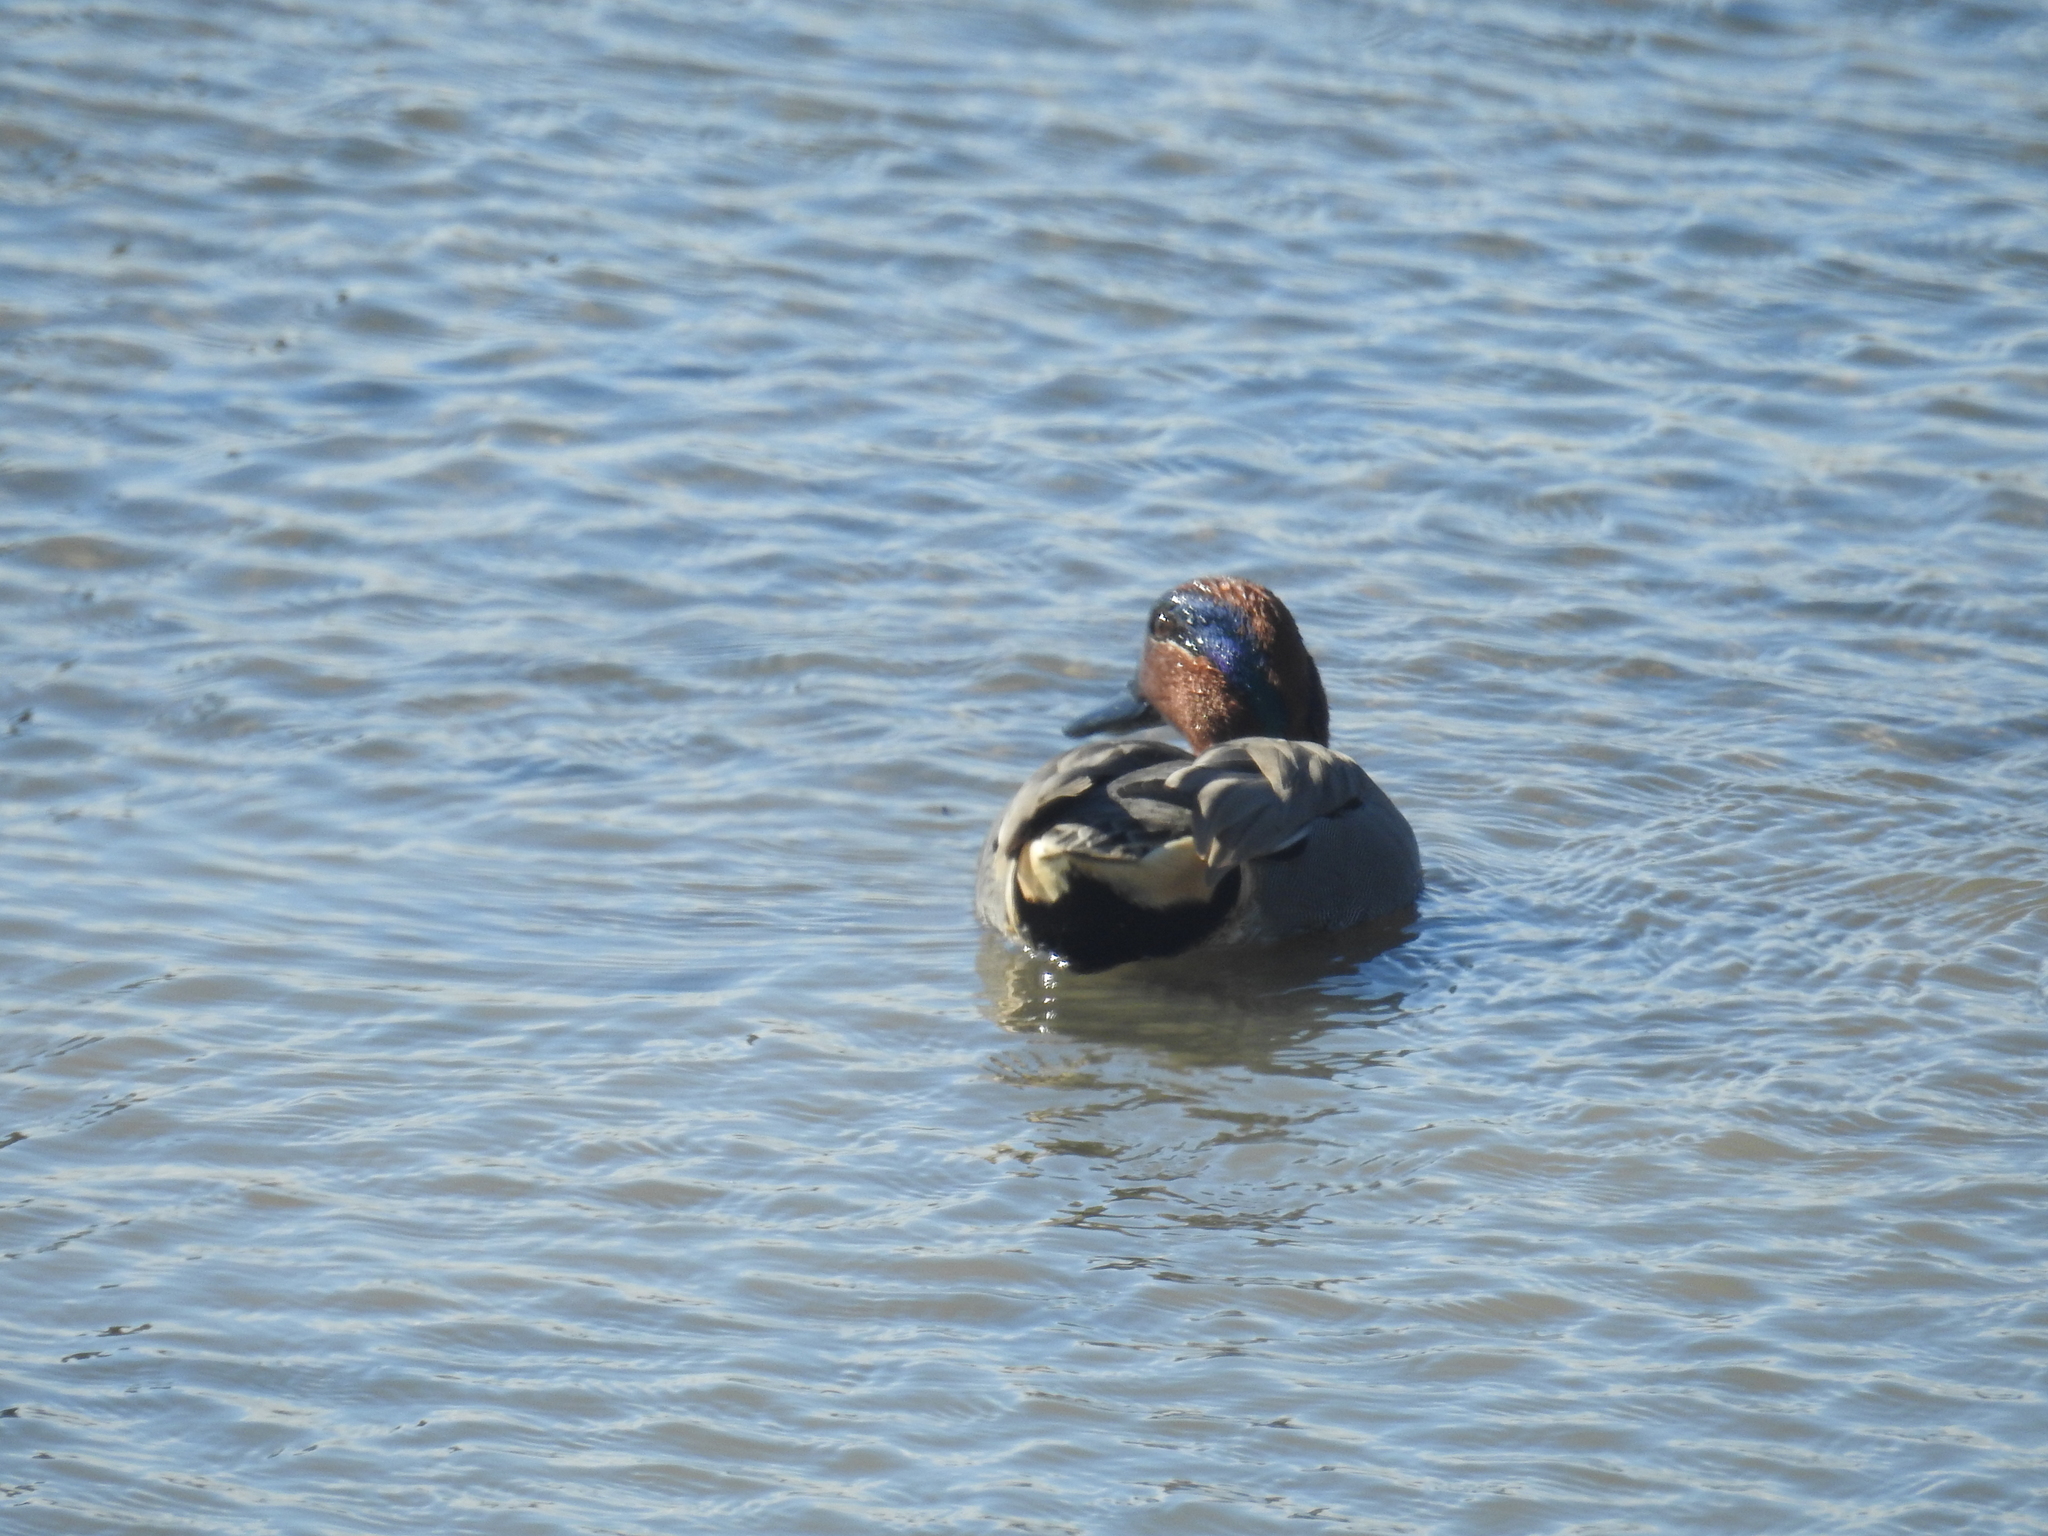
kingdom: Animalia
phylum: Chordata
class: Aves
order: Anseriformes
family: Anatidae
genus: Anas
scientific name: Anas carolinensis
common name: Green-winged teal
